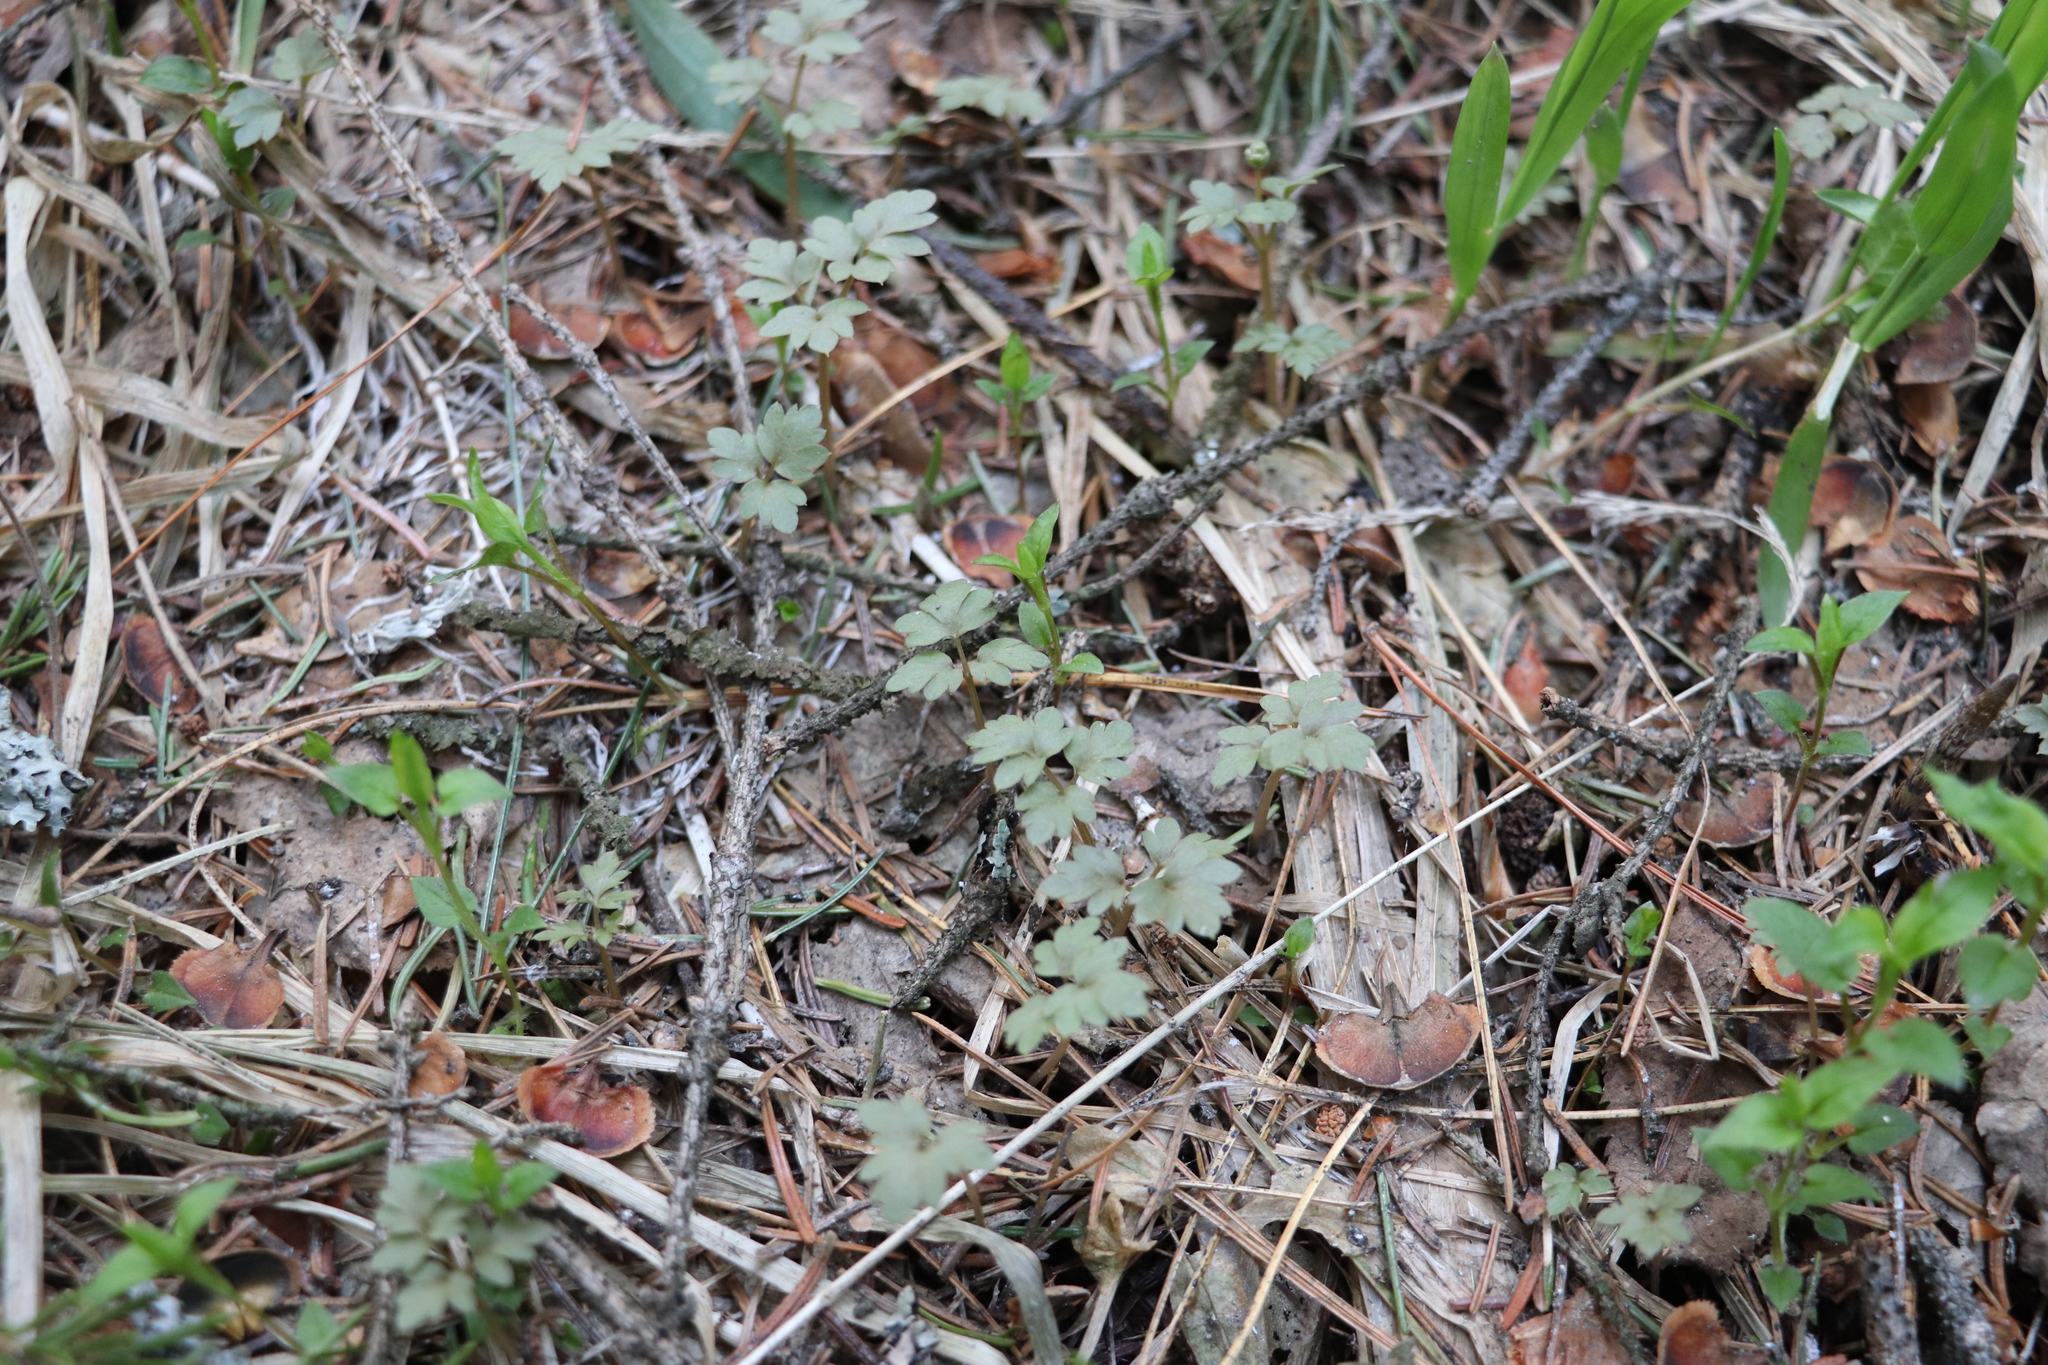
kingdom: Plantae
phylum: Tracheophyta
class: Magnoliopsida
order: Dipsacales
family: Viburnaceae
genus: Adoxa
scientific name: Adoxa moschatellina
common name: Moschatel
